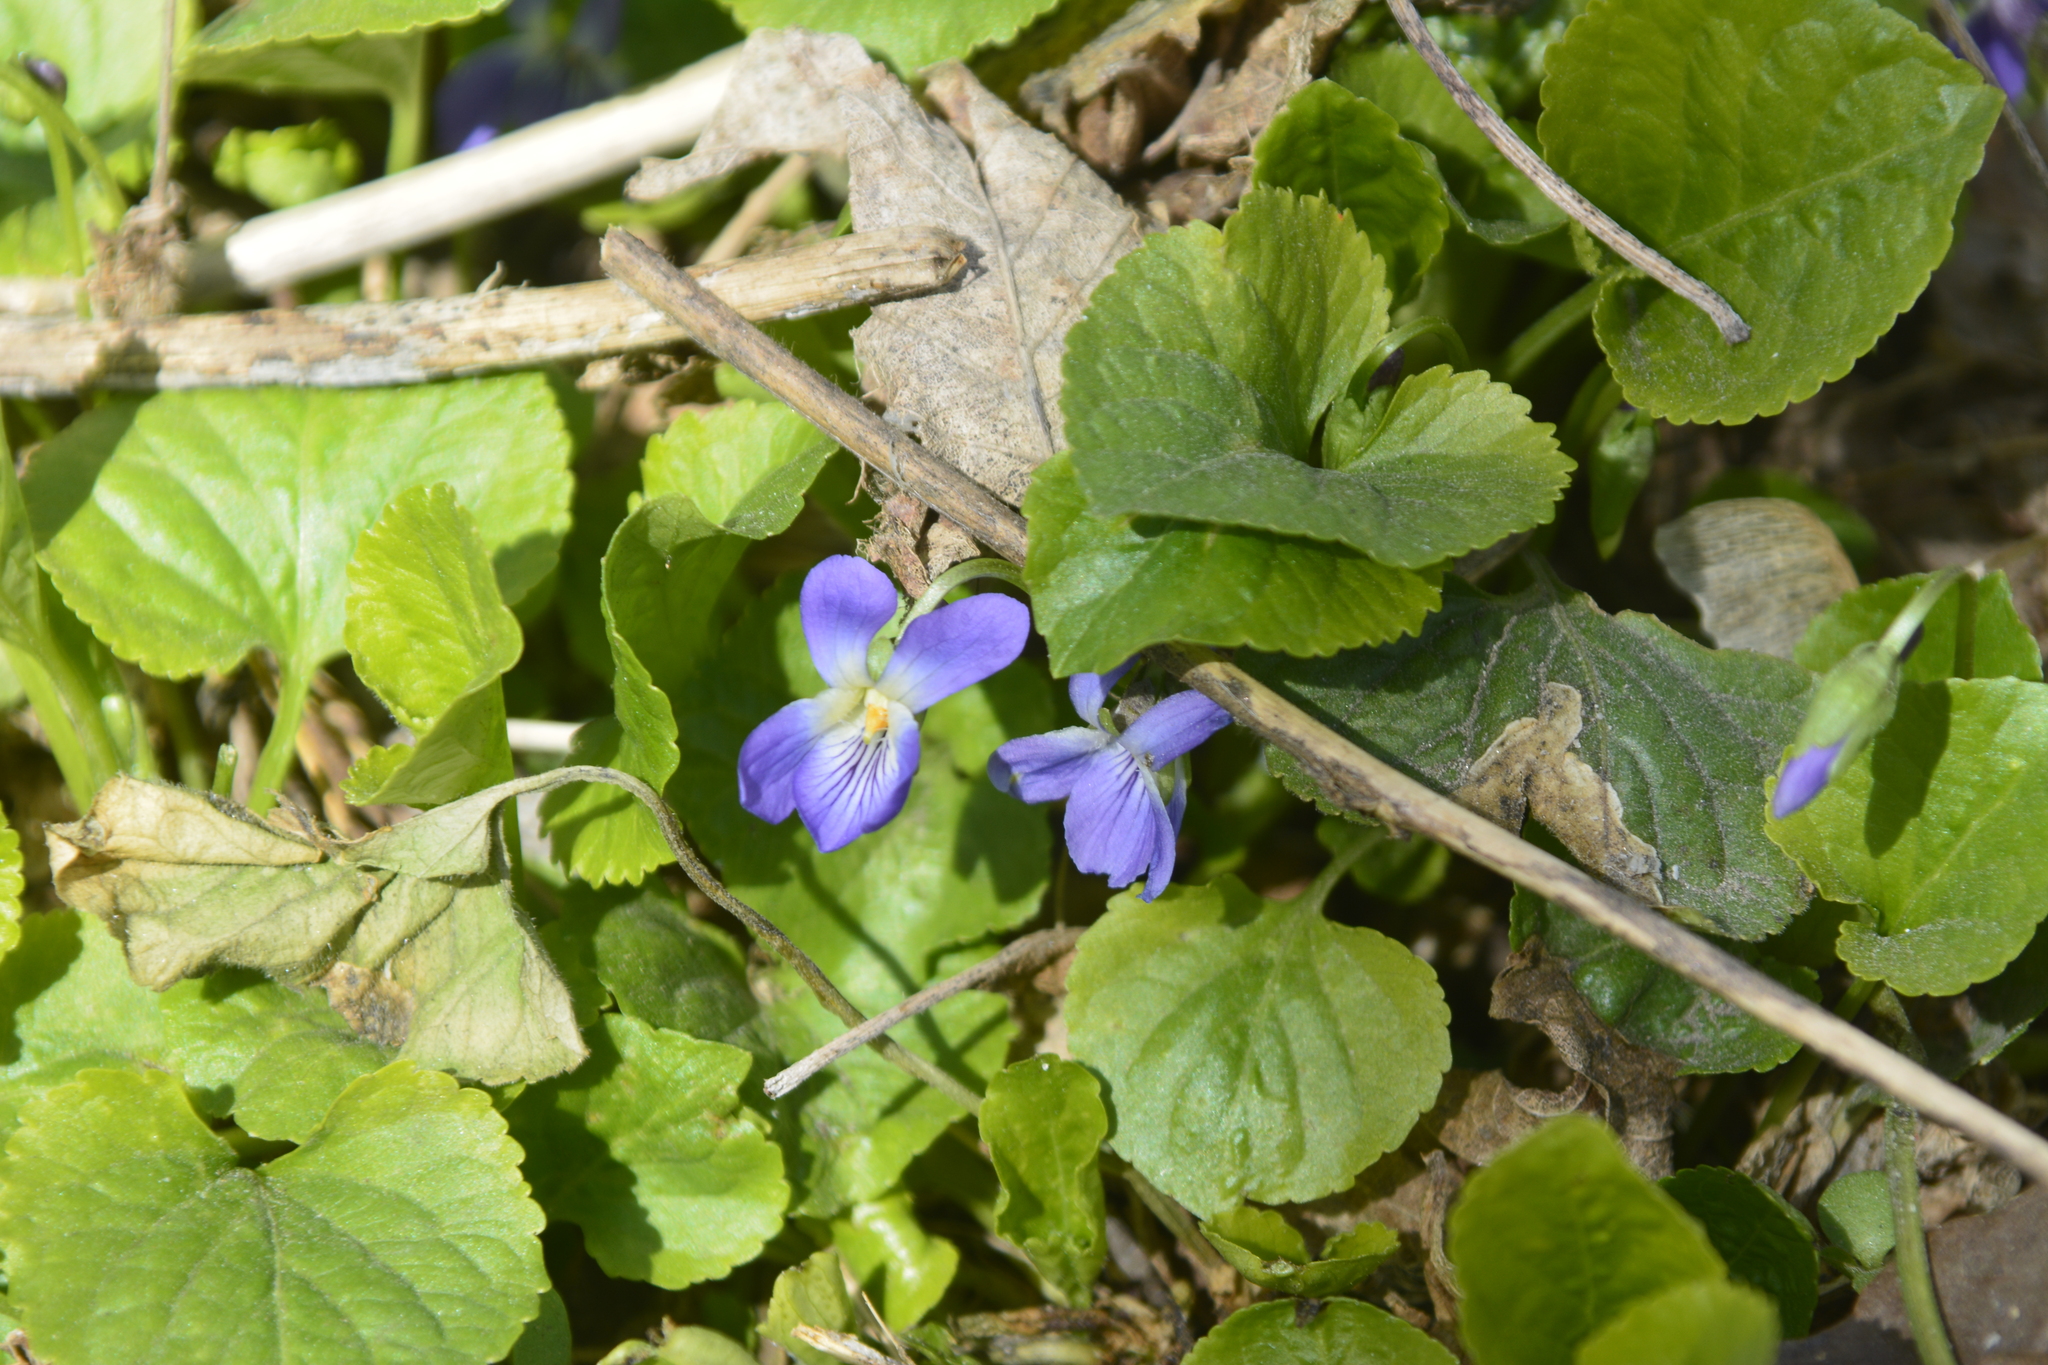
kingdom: Plantae
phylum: Tracheophyta
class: Magnoliopsida
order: Malpighiales
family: Violaceae
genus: Viola
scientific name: Viola odorata
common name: Sweet violet
